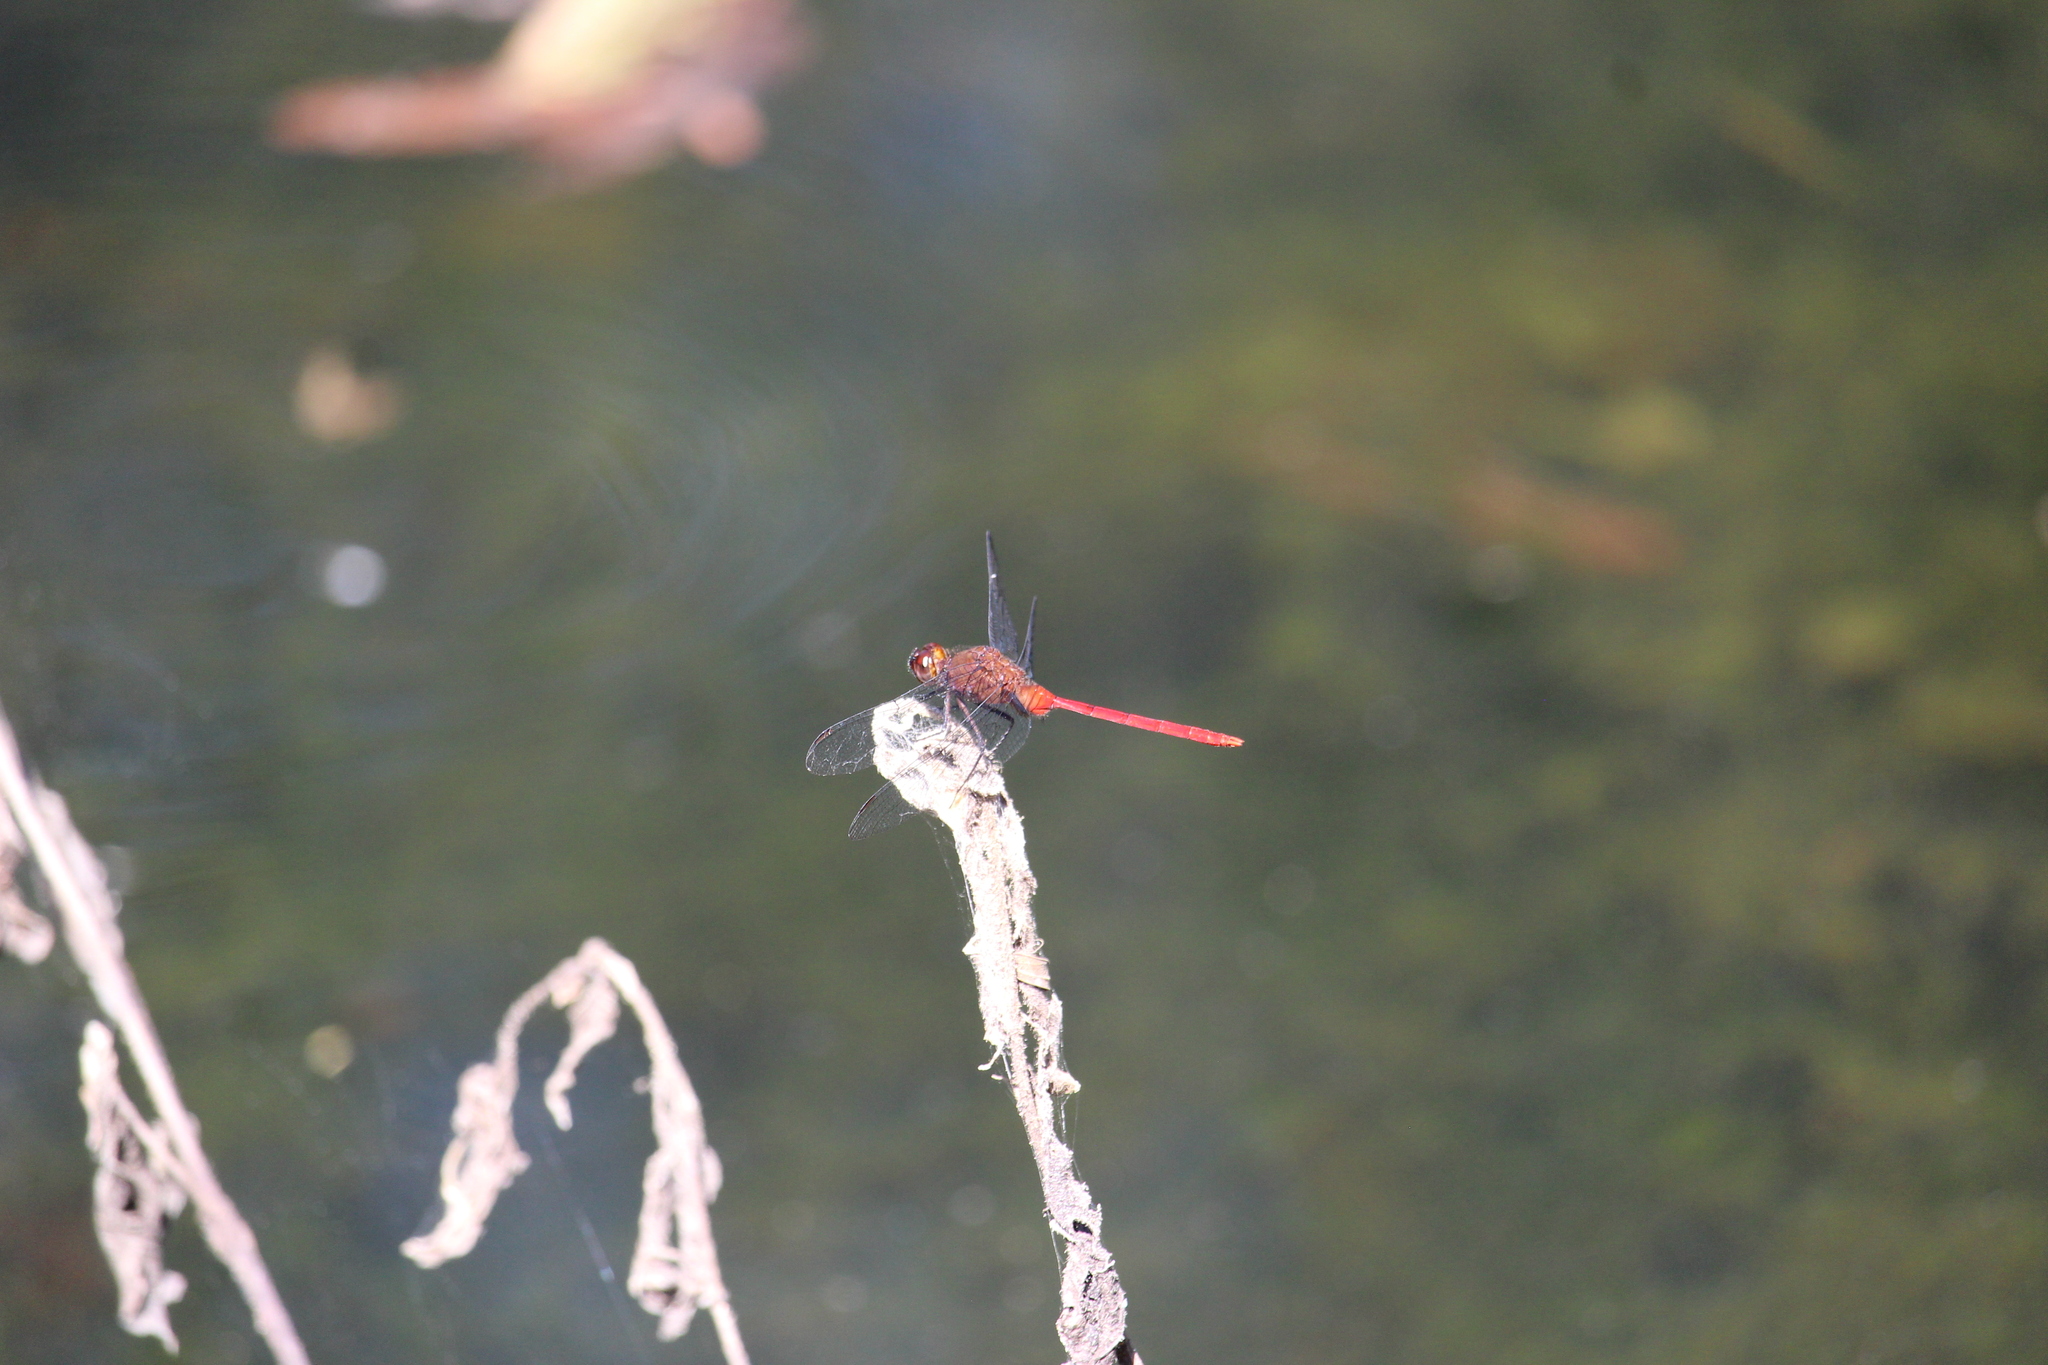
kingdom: Animalia
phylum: Arthropoda
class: Insecta
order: Odonata
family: Libellulidae
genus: Erythemis
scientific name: Erythemis haematogastra
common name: Red pondhawk
